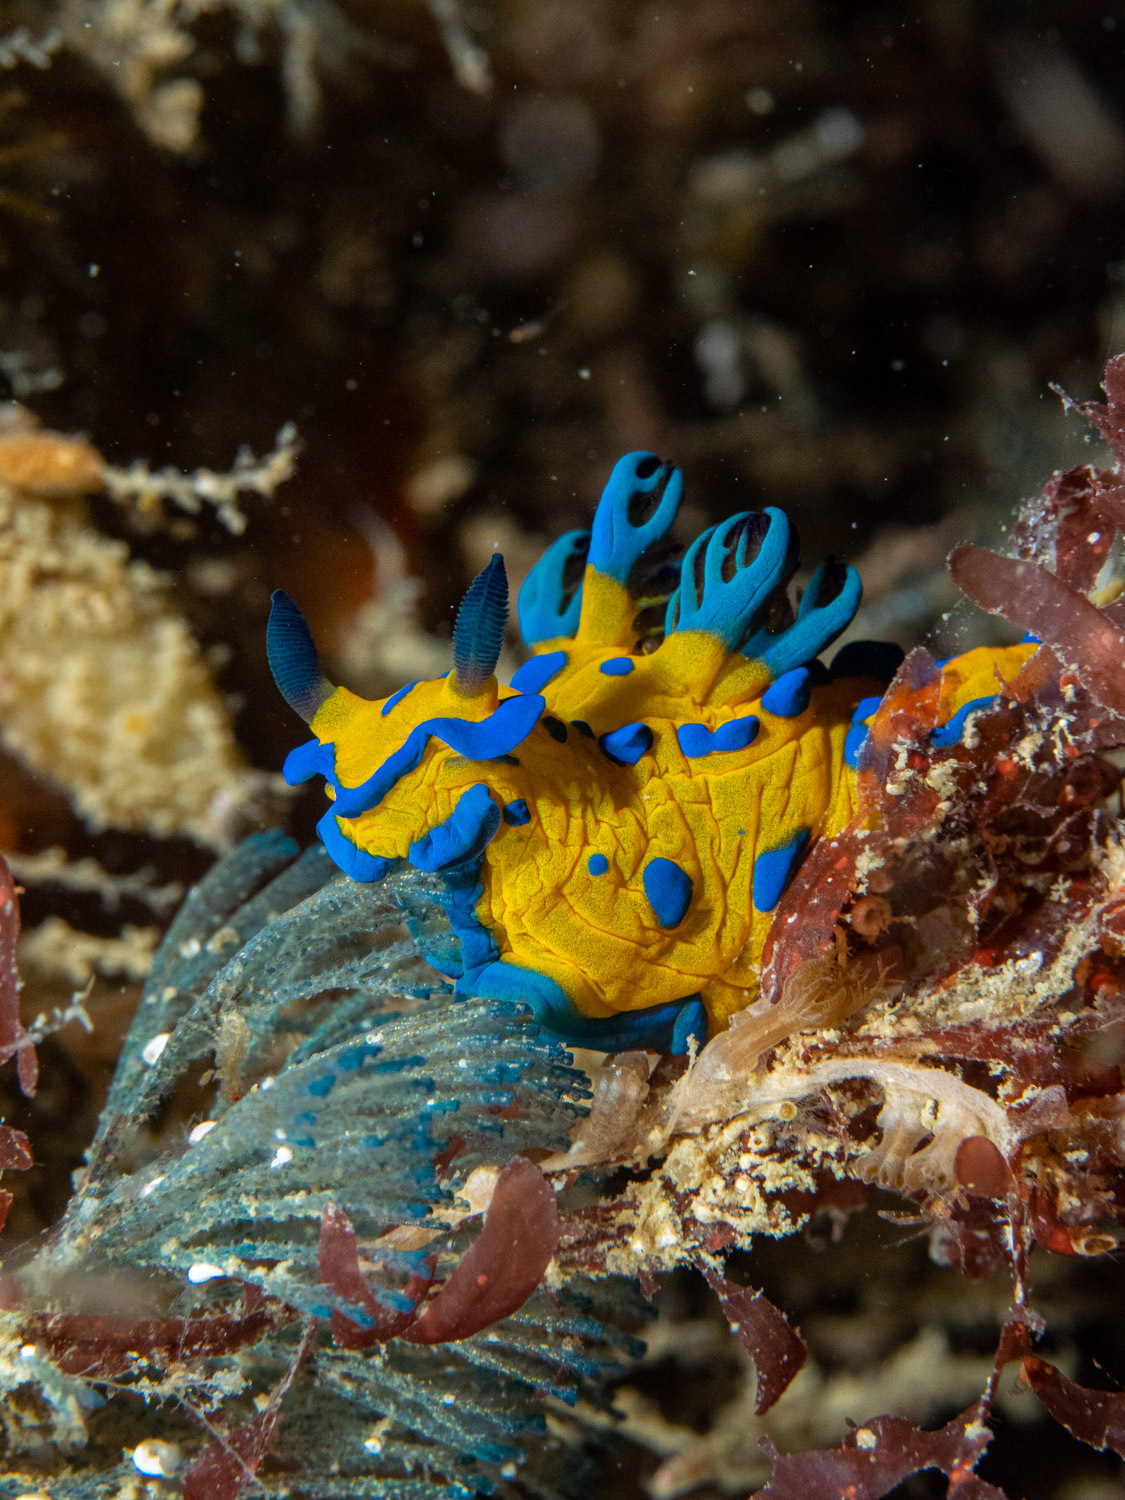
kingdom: Animalia
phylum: Mollusca
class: Gastropoda
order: Nudibranchia
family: Polyceridae
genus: Tambja
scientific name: Tambja verconis
